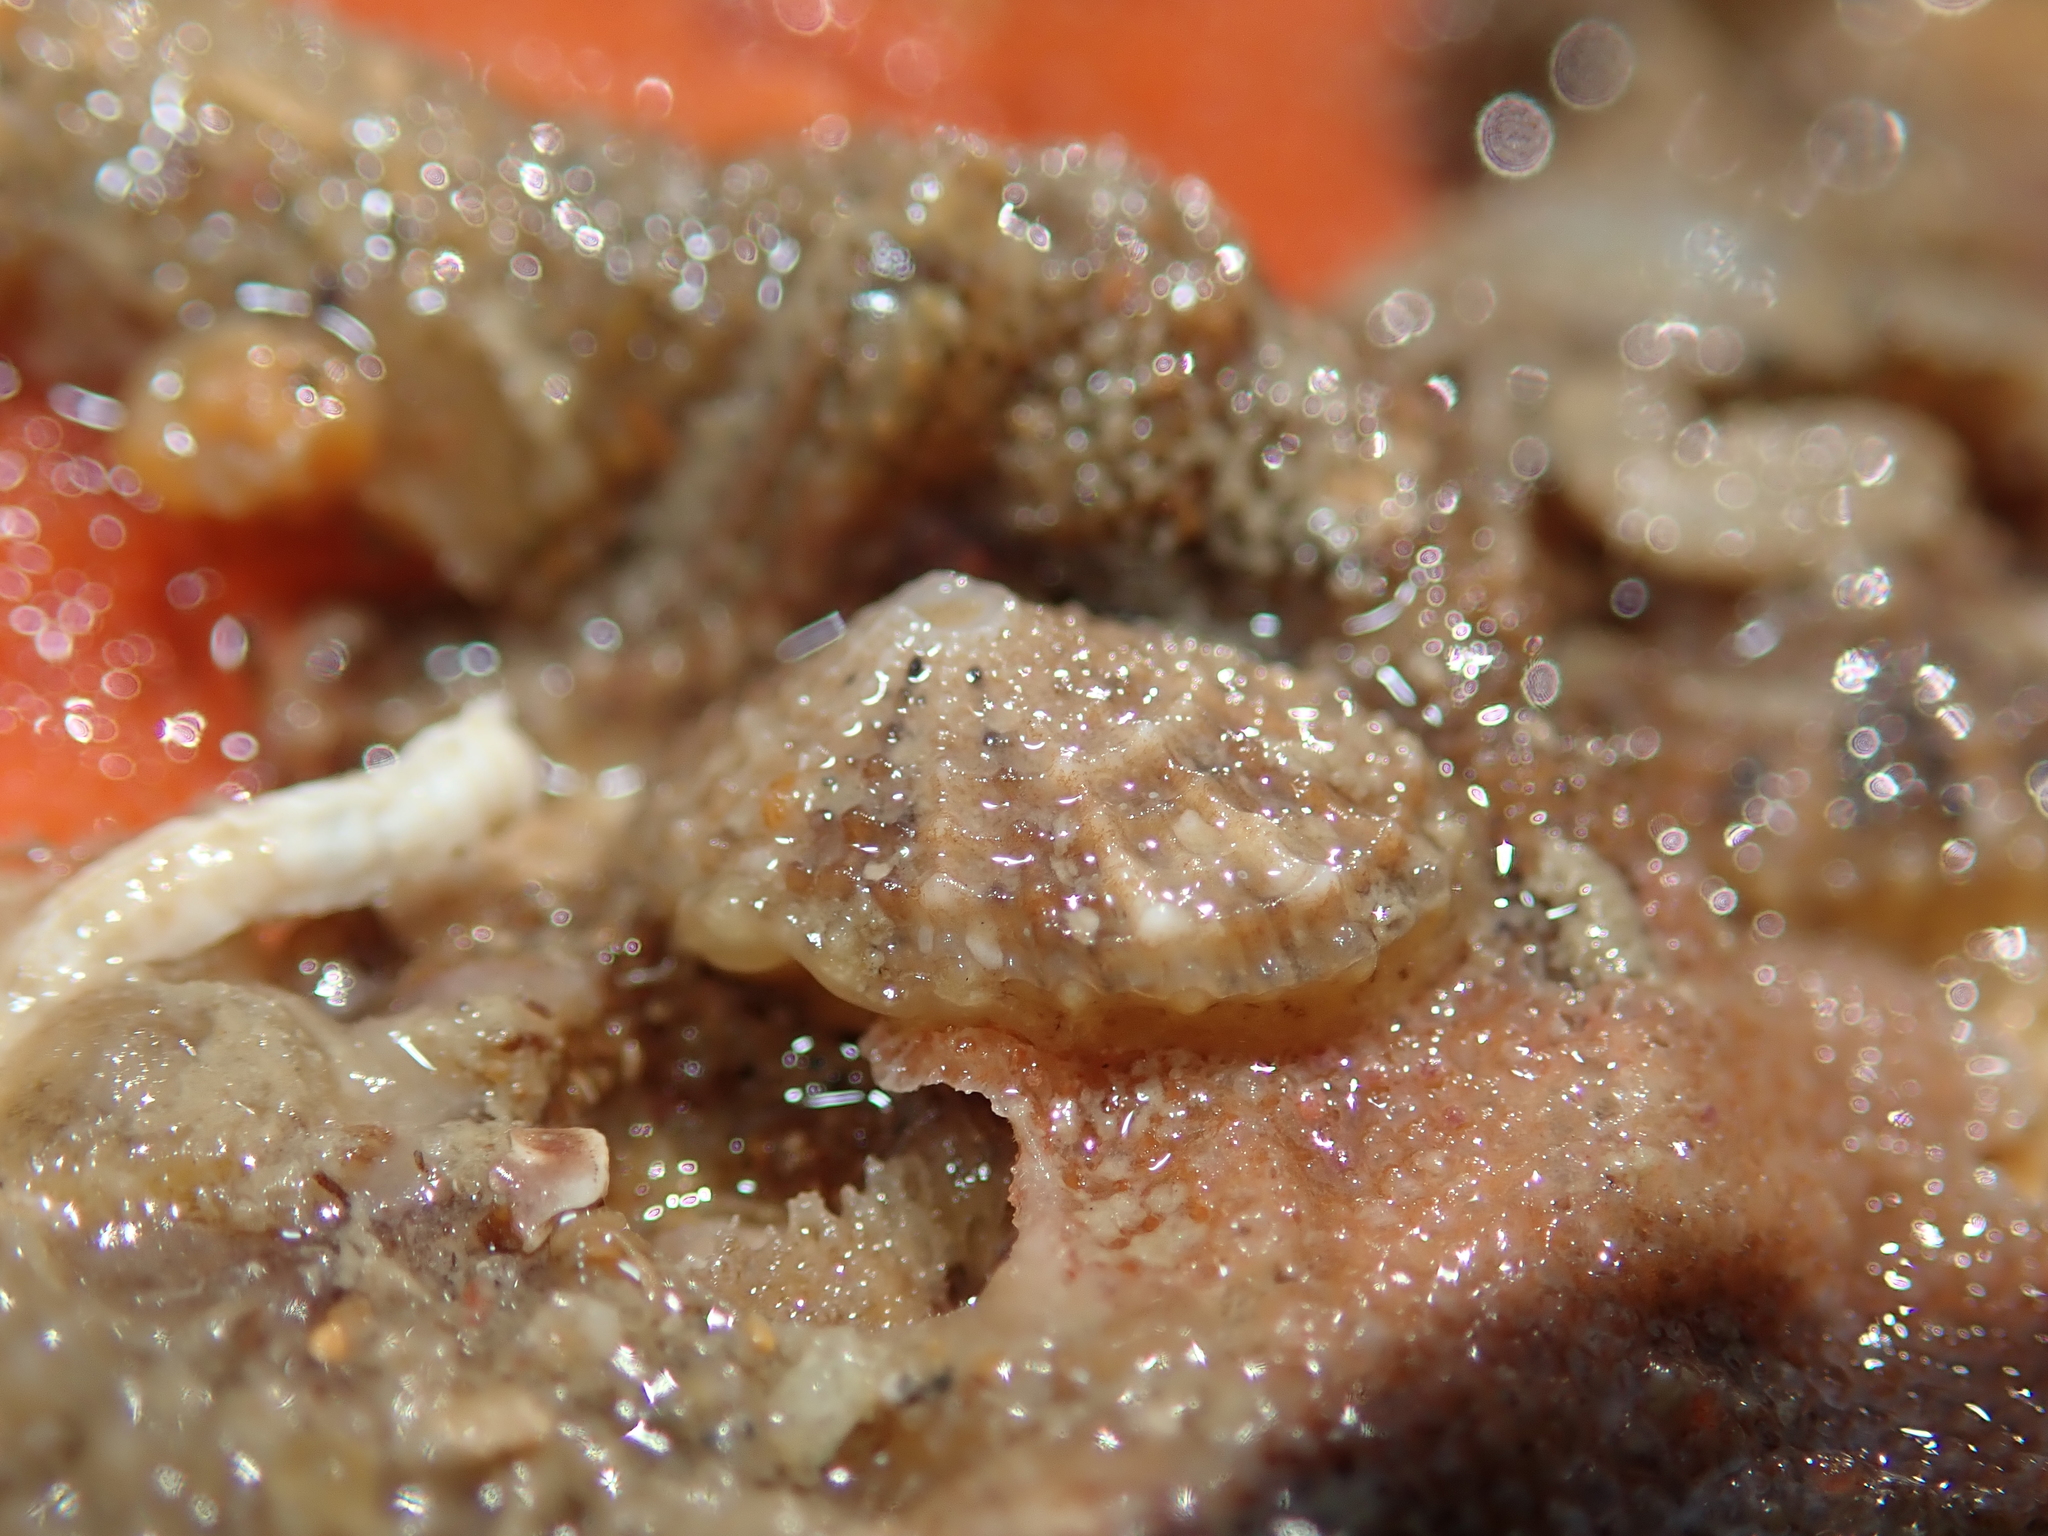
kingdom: Animalia
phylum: Mollusca
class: Gastropoda
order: Lepetellida
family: Fissurellidae
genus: Diodora
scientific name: Diodora graeca
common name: Common keyhole limpet
